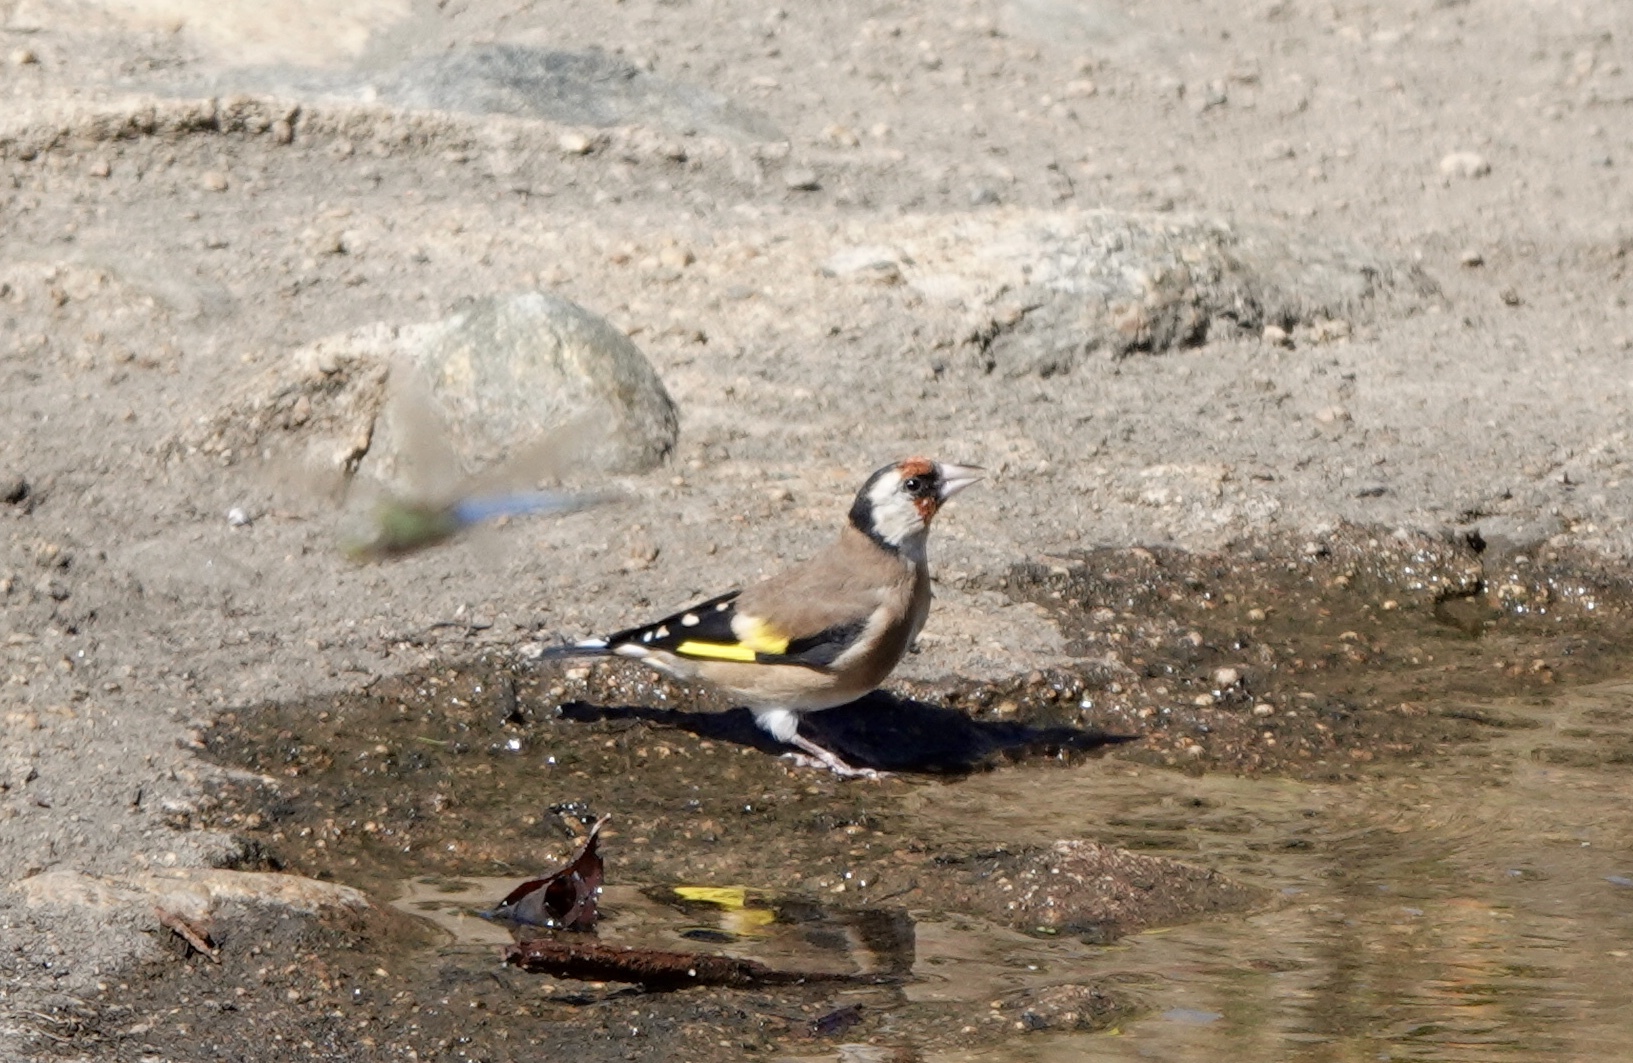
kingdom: Animalia
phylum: Chordata
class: Aves
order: Passeriformes
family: Fringillidae
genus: Carduelis
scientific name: Carduelis carduelis
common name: European goldfinch
